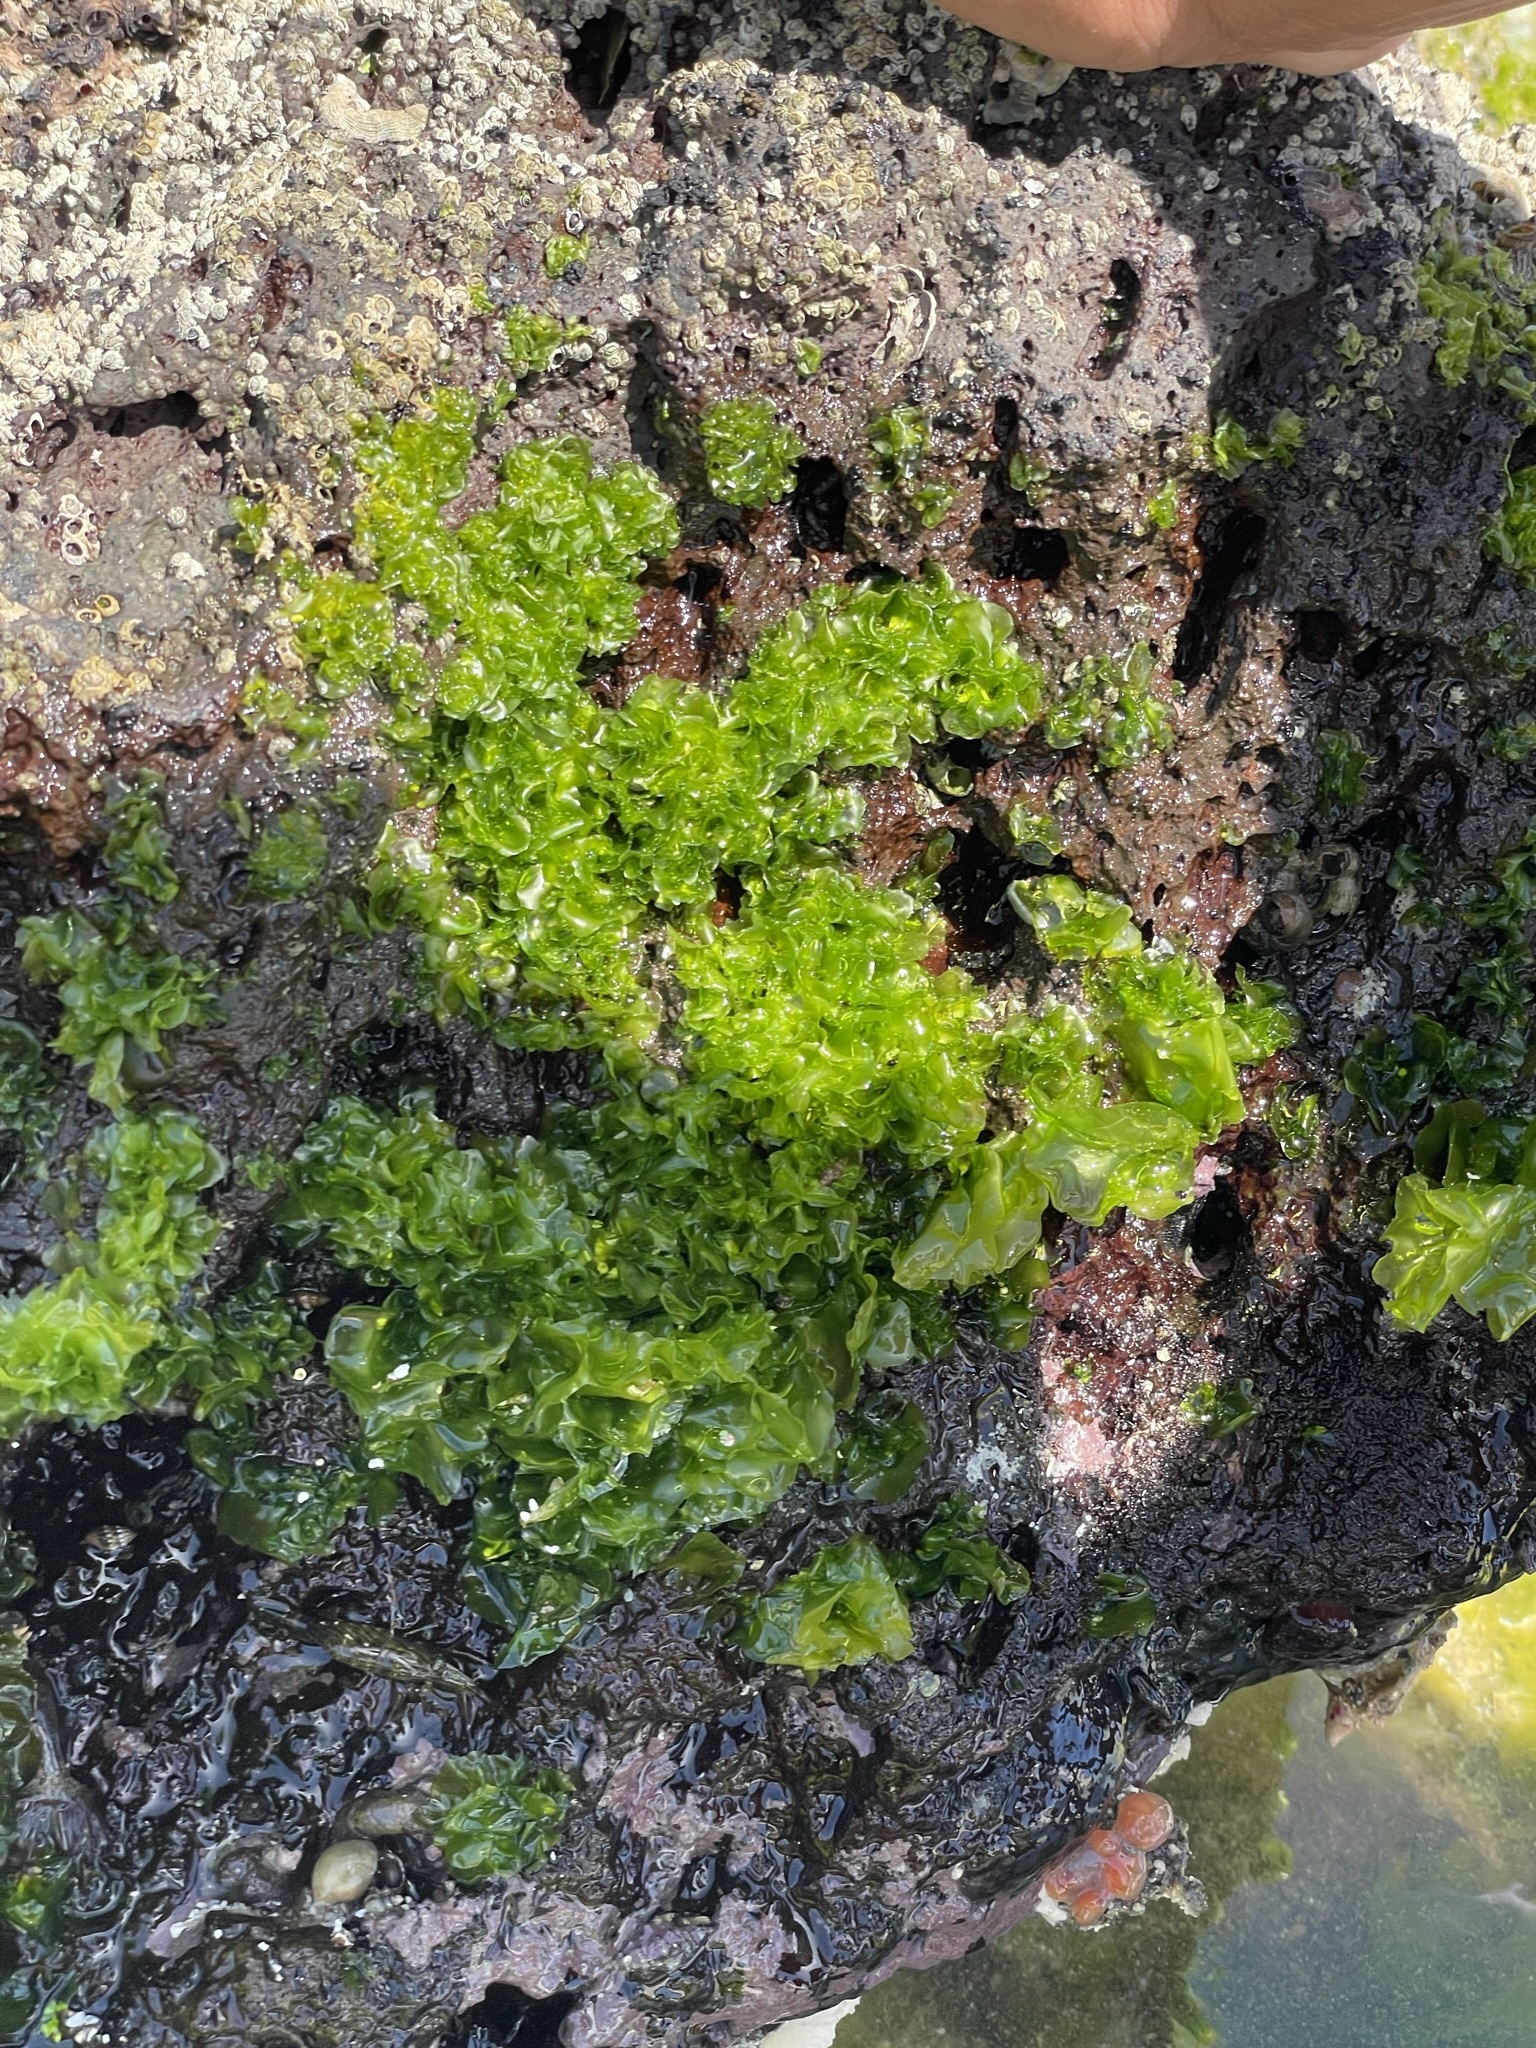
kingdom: Plantae
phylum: Chlorophyta
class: Ulvophyceae
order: Ulvales
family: Ulvaceae
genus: Ulva
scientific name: Ulva lactuca
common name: Sea lettuce
